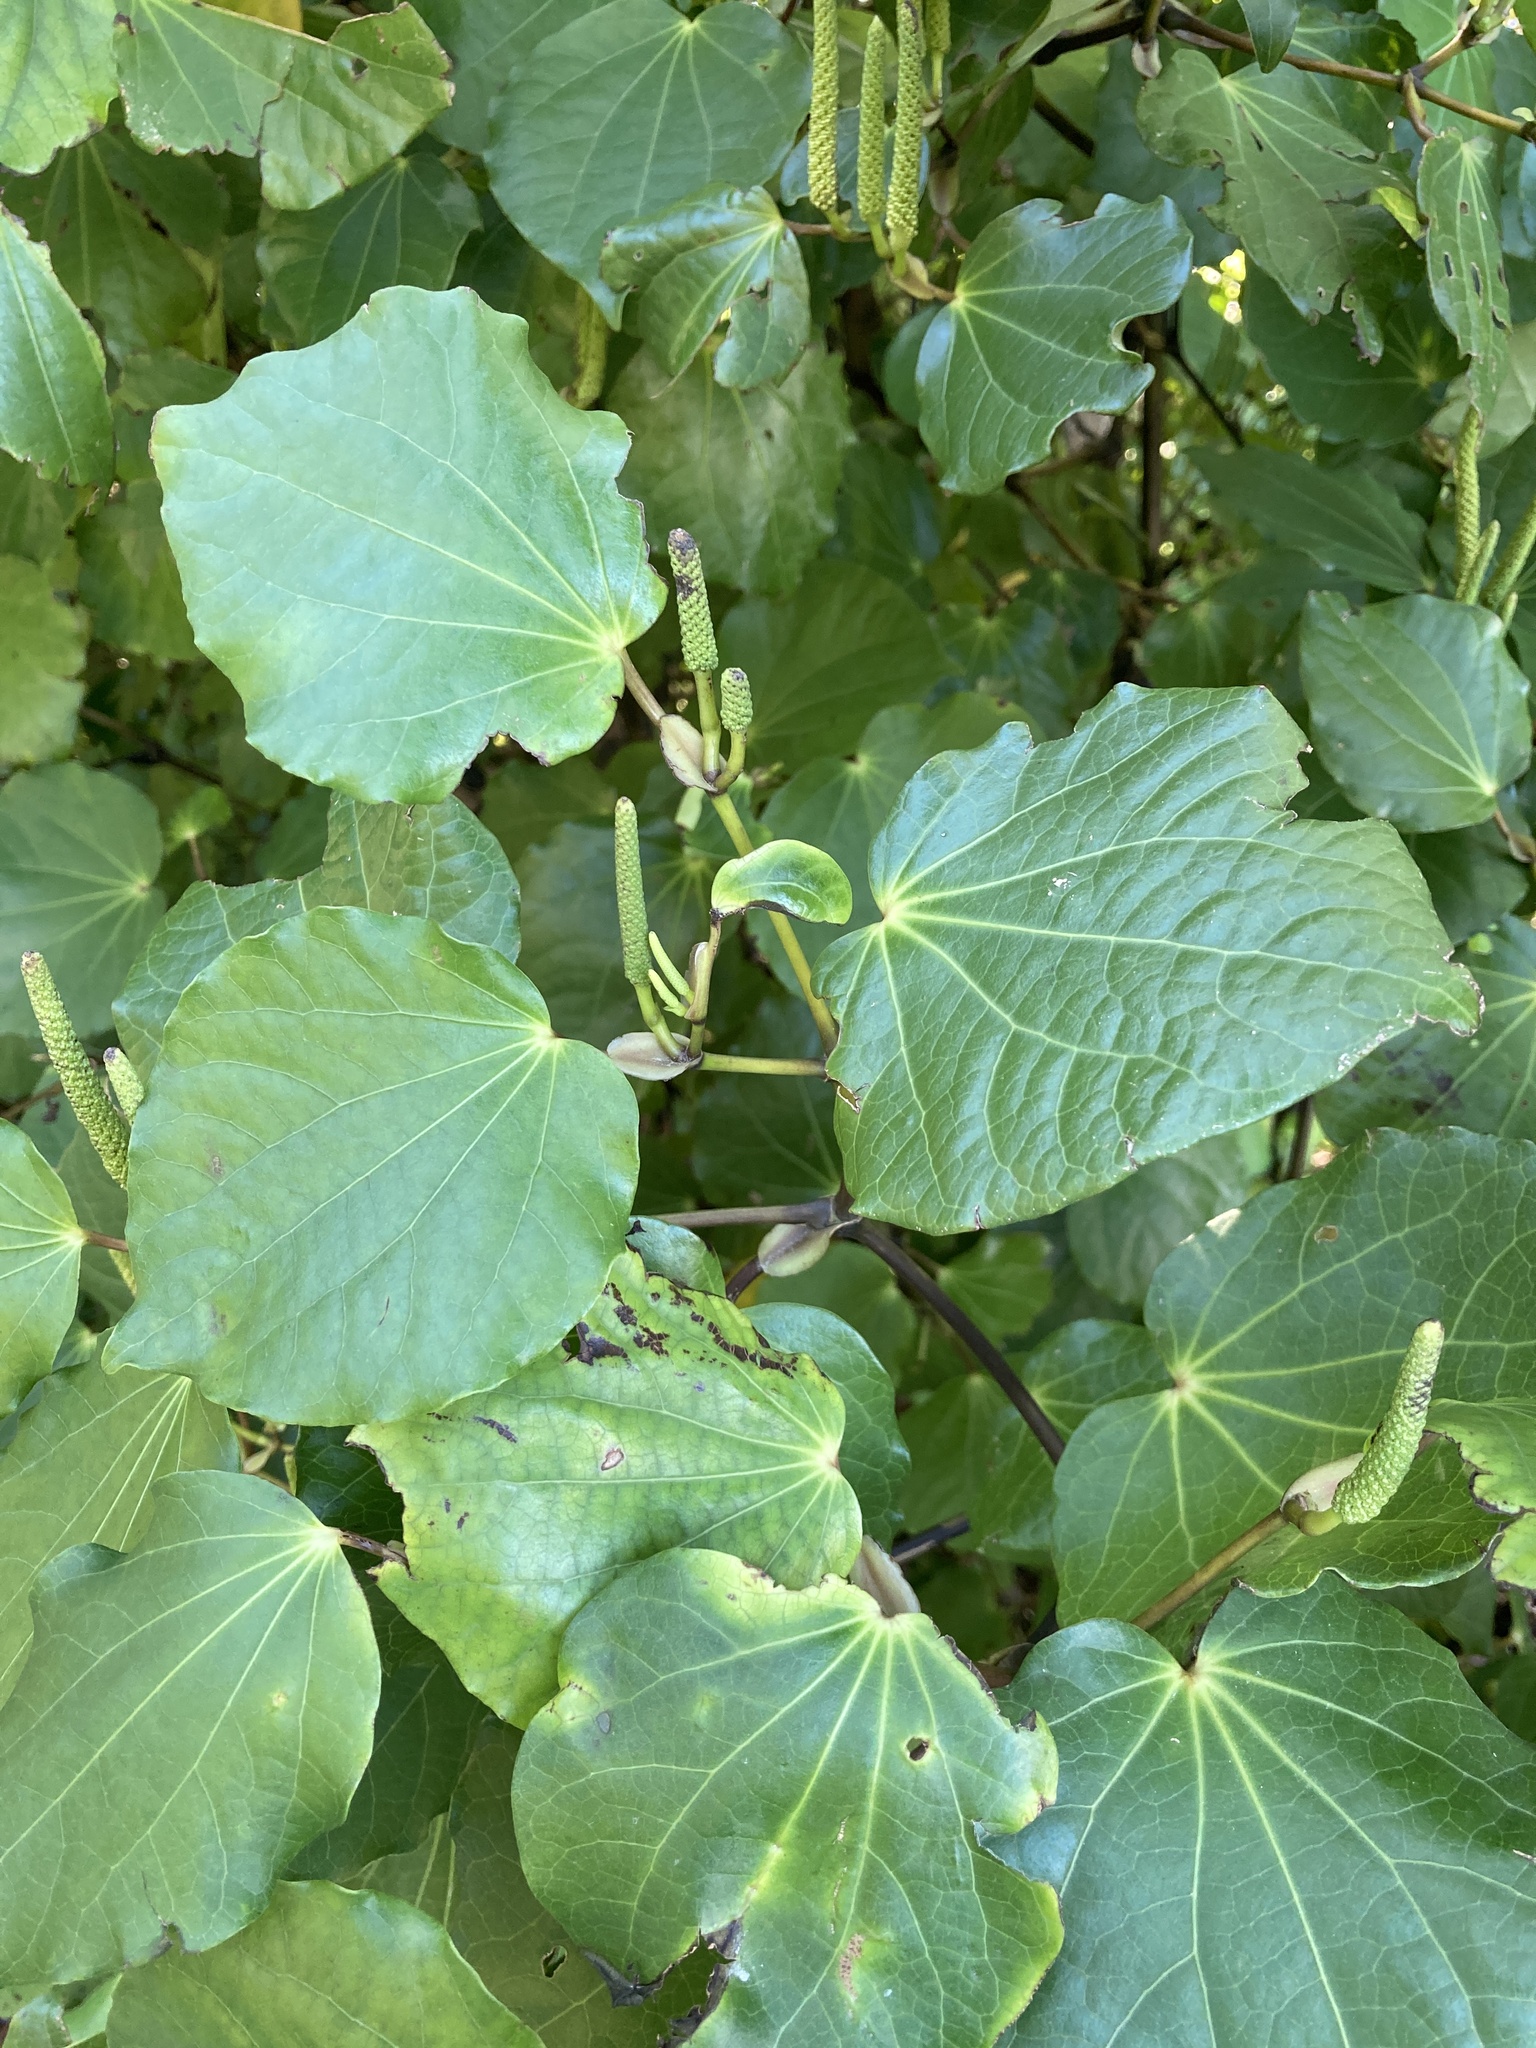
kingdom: Plantae
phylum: Tracheophyta
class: Magnoliopsida
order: Piperales
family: Piperaceae
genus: Macropiper
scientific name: Macropiper excelsum
